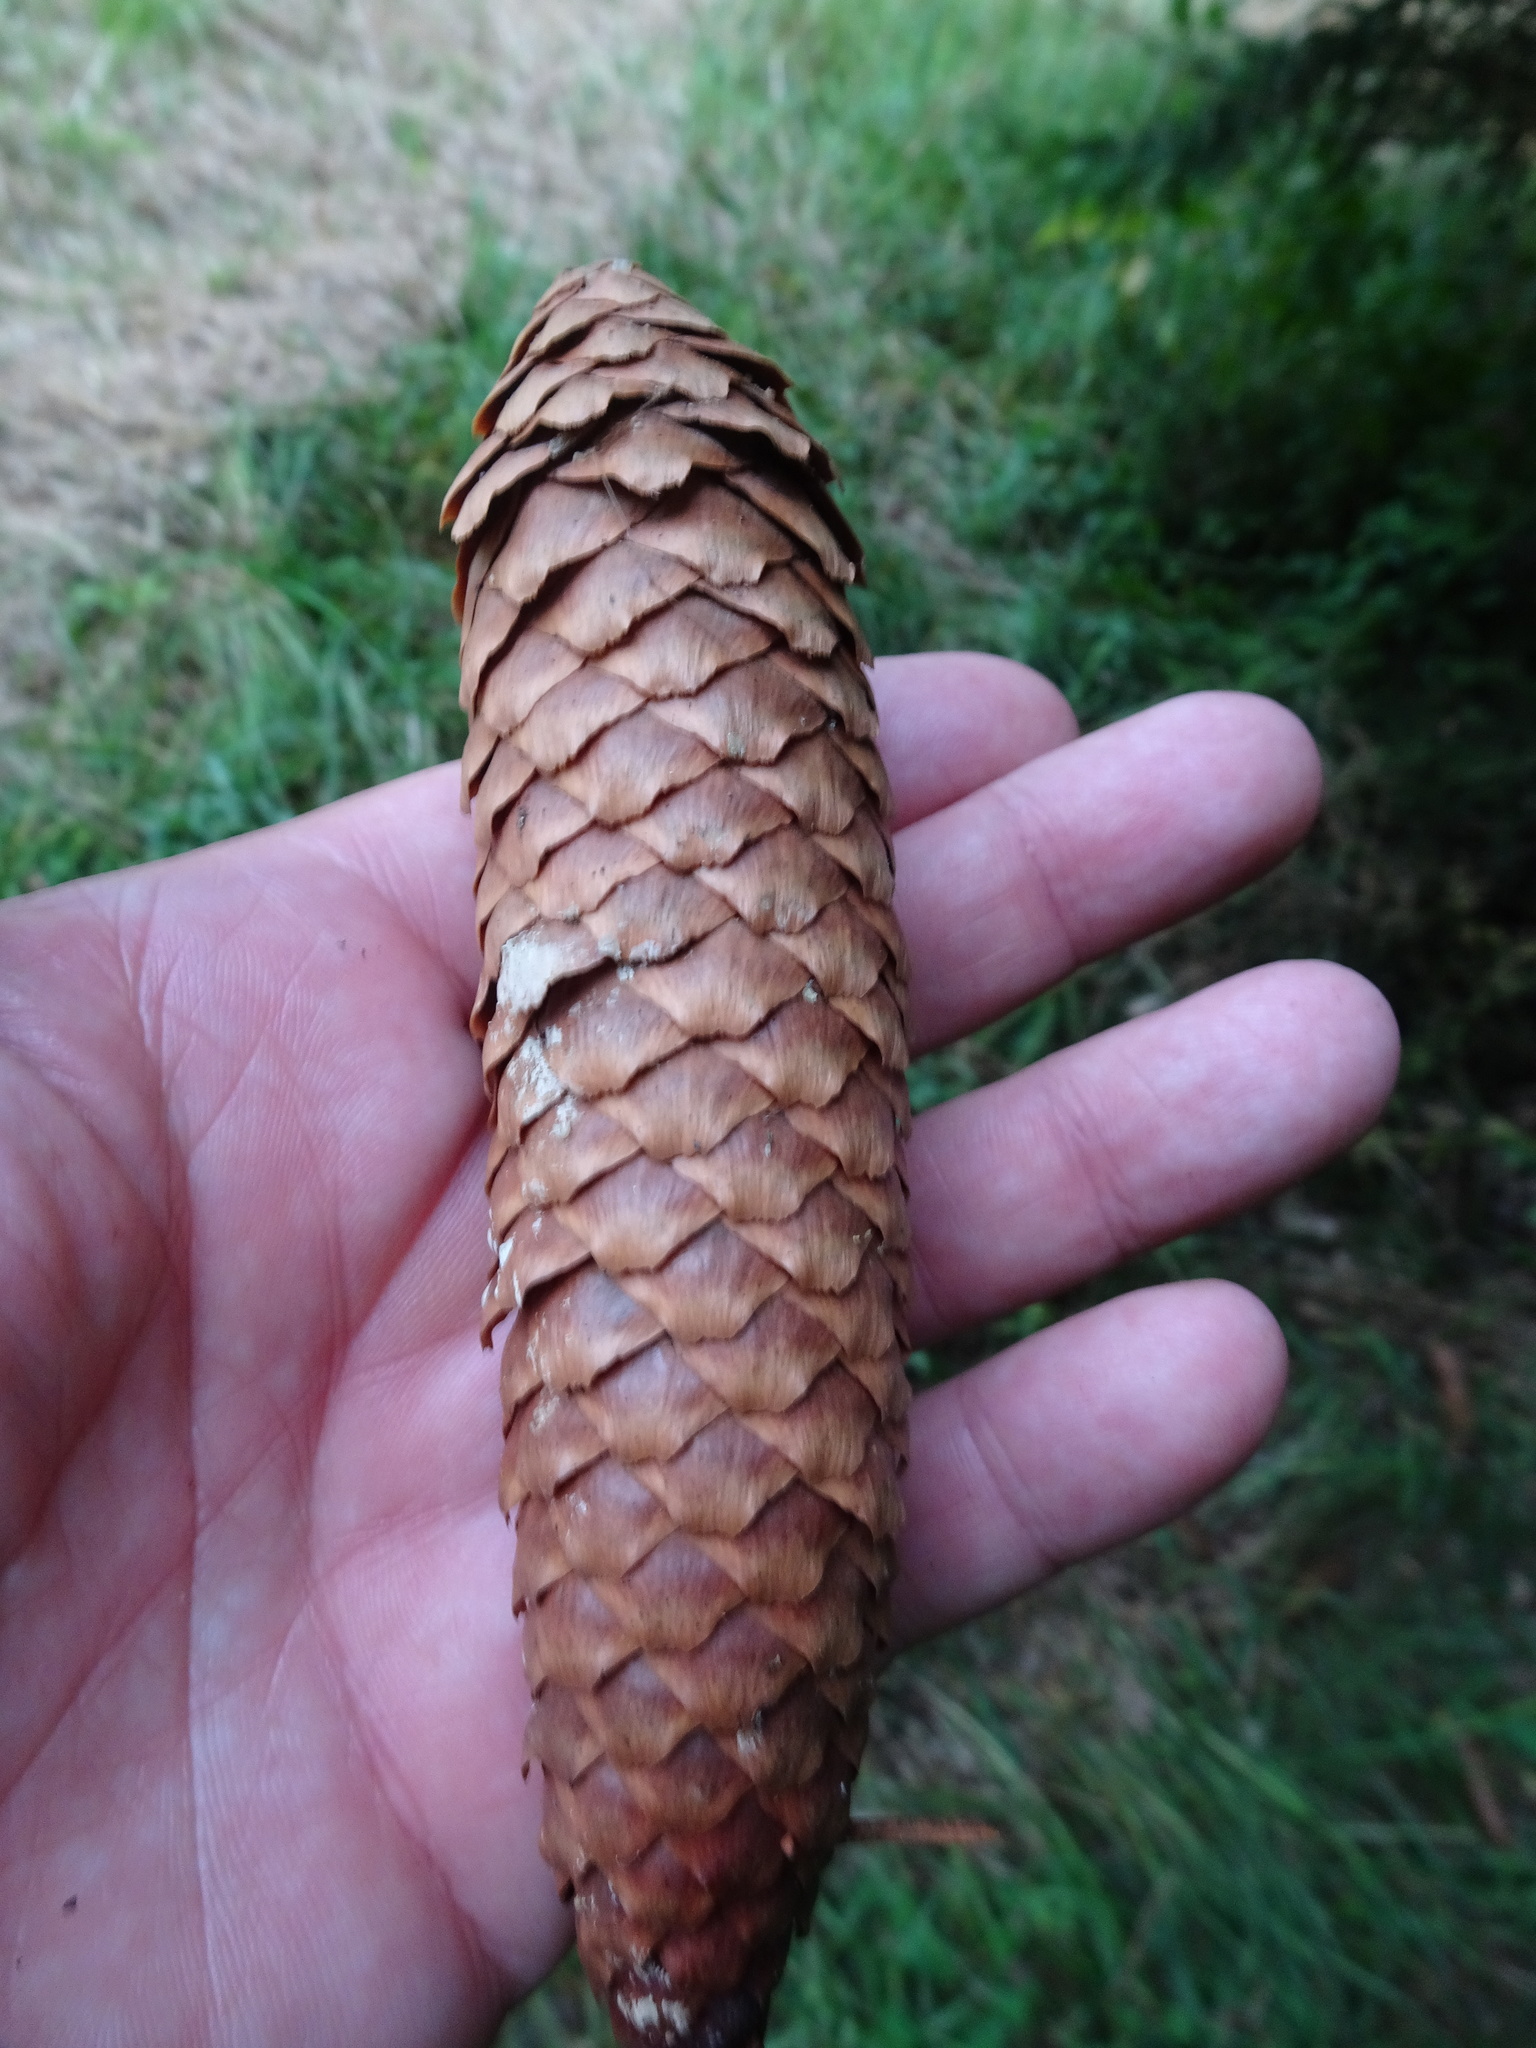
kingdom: Plantae
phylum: Tracheophyta
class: Pinopsida
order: Pinales
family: Pinaceae
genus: Picea
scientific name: Picea abies
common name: Norway spruce
